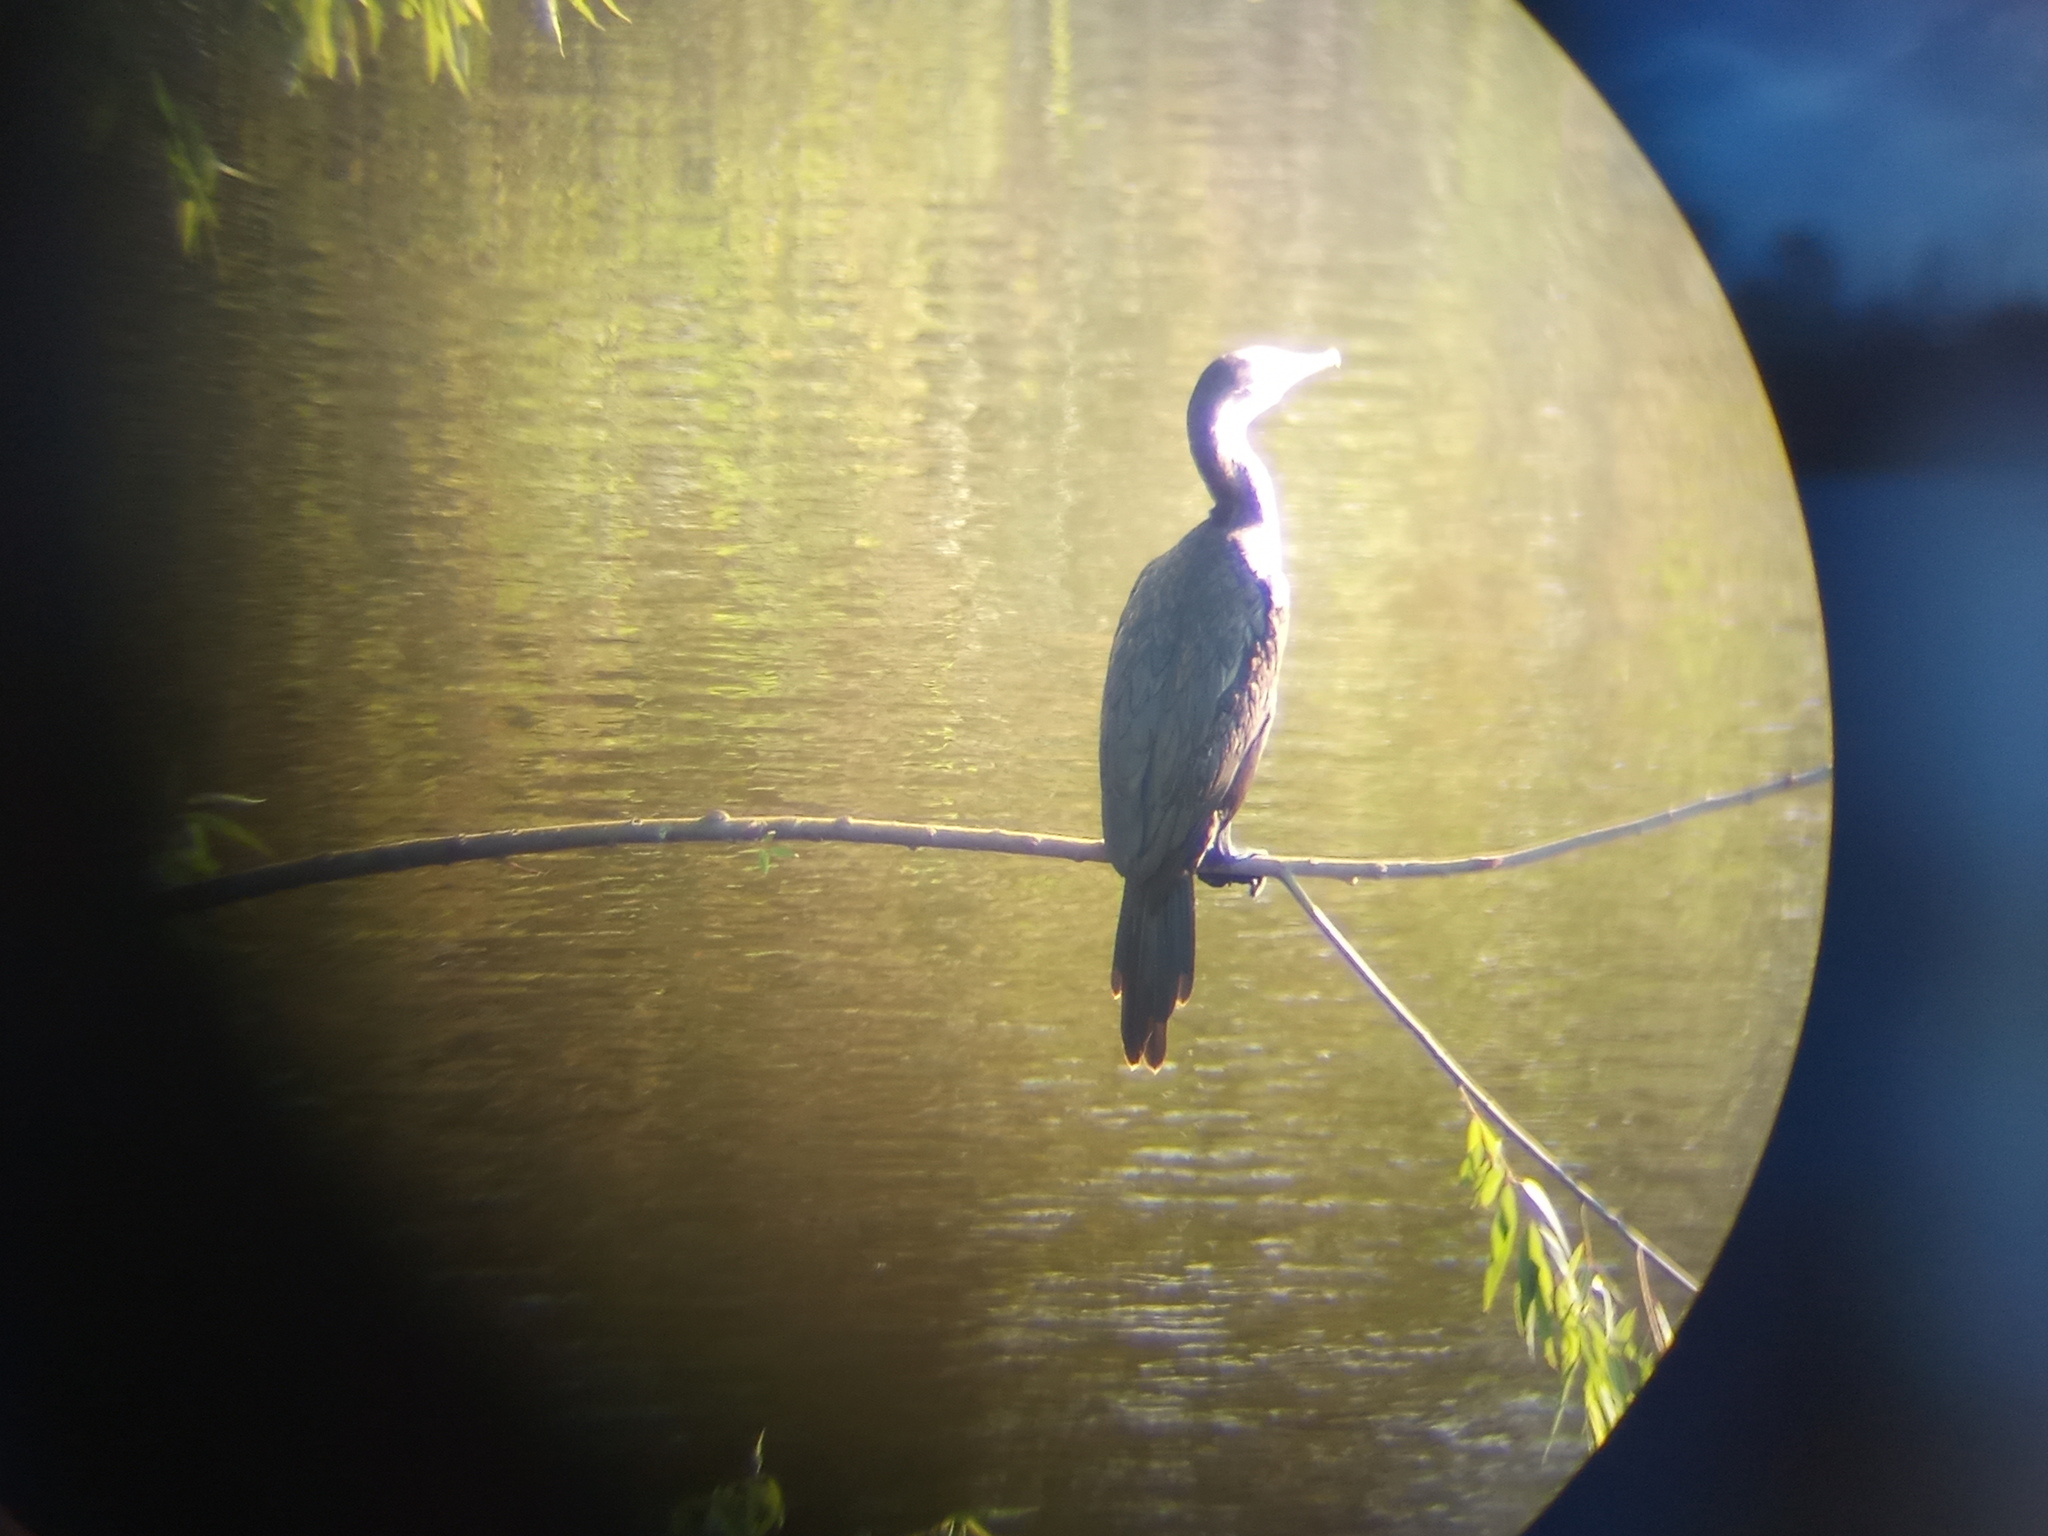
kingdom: Animalia
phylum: Chordata
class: Aves
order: Suliformes
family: Phalacrocoracidae
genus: Phalacrocorax
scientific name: Phalacrocorax brasilianus
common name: Neotropic cormorant
